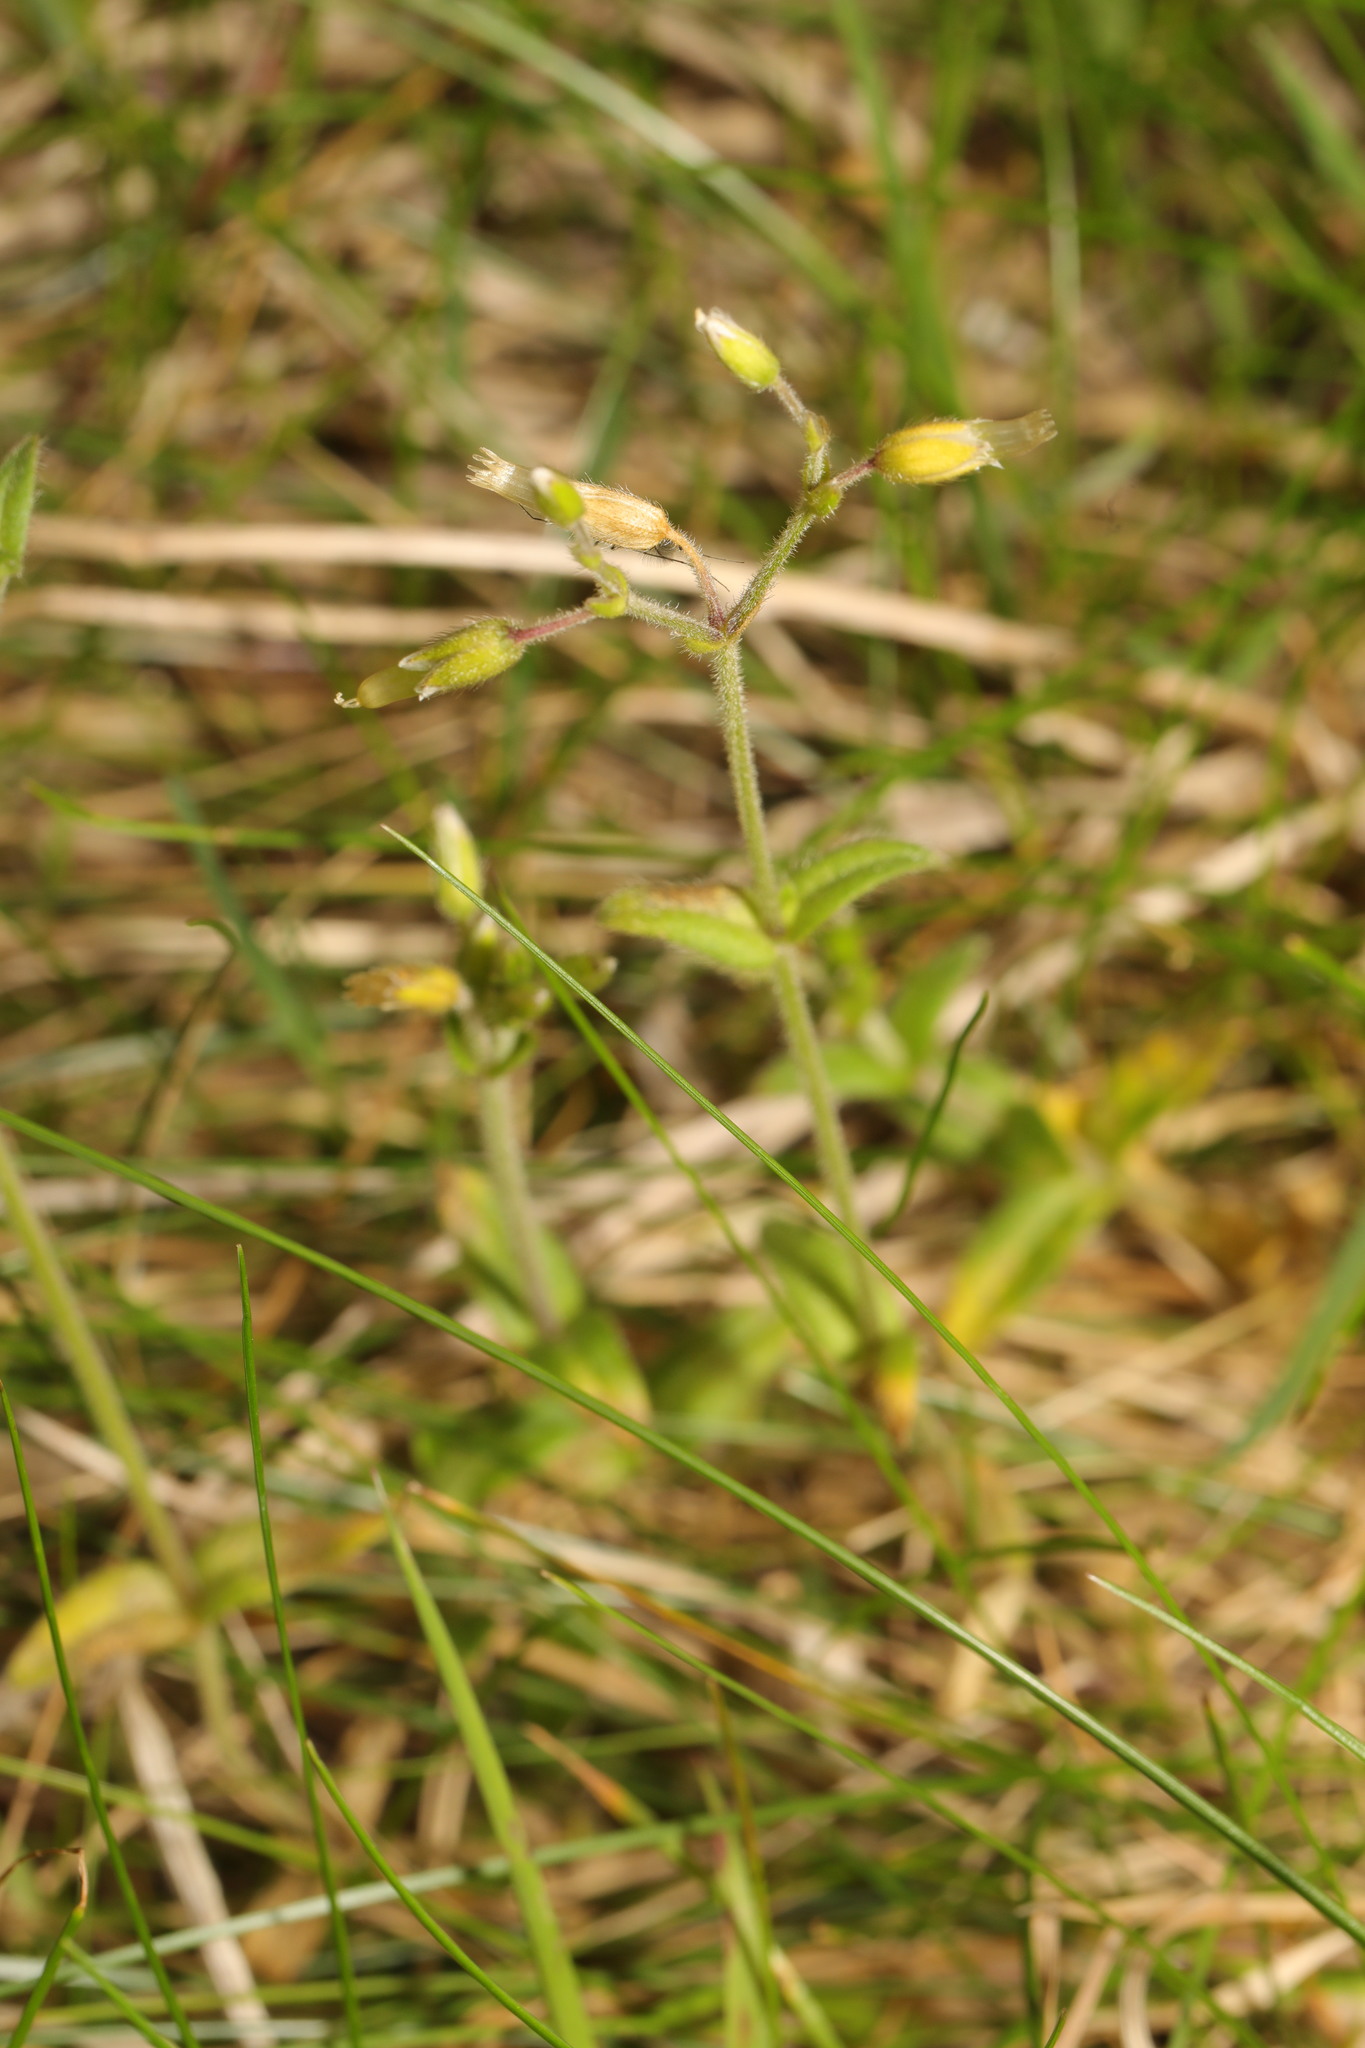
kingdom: Plantae
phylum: Tracheophyta
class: Magnoliopsida
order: Caryophyllales
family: Caryophyllaceae
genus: Cerastium
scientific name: Cerastium fontanum
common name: Common mouse-ear
